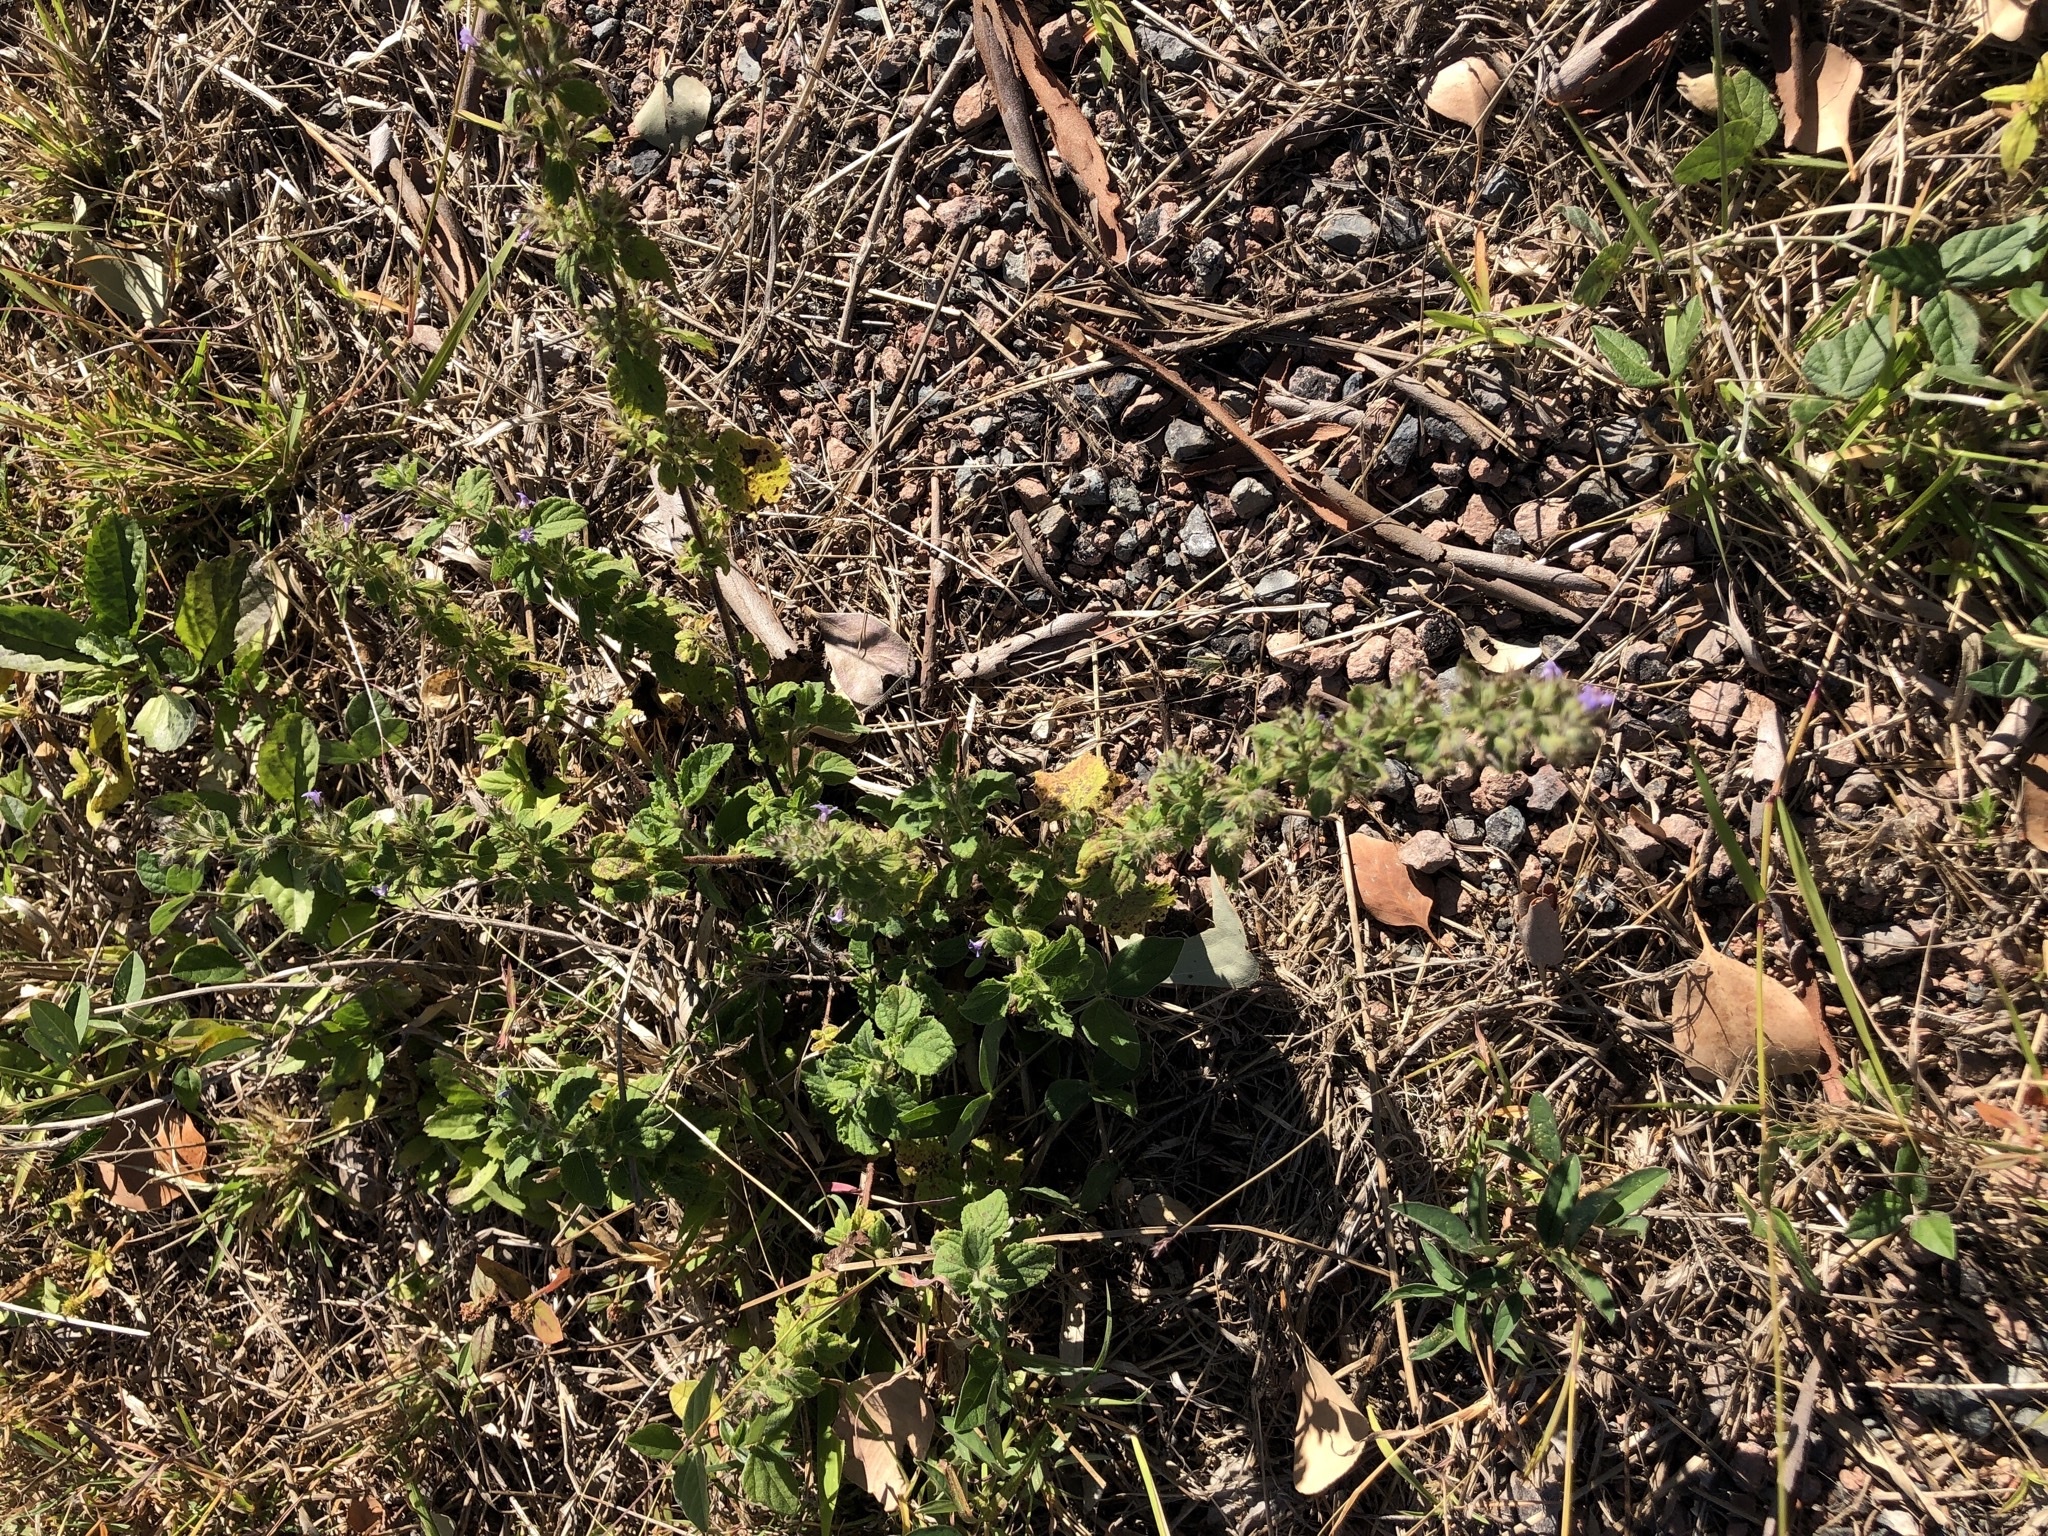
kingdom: Plantae
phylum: Tracheophyta
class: Magnoliopsida
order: Lamiales
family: Lamiaceae
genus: Mesosphaerum
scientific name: Mesosphaerum suaveolens
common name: Pignut
